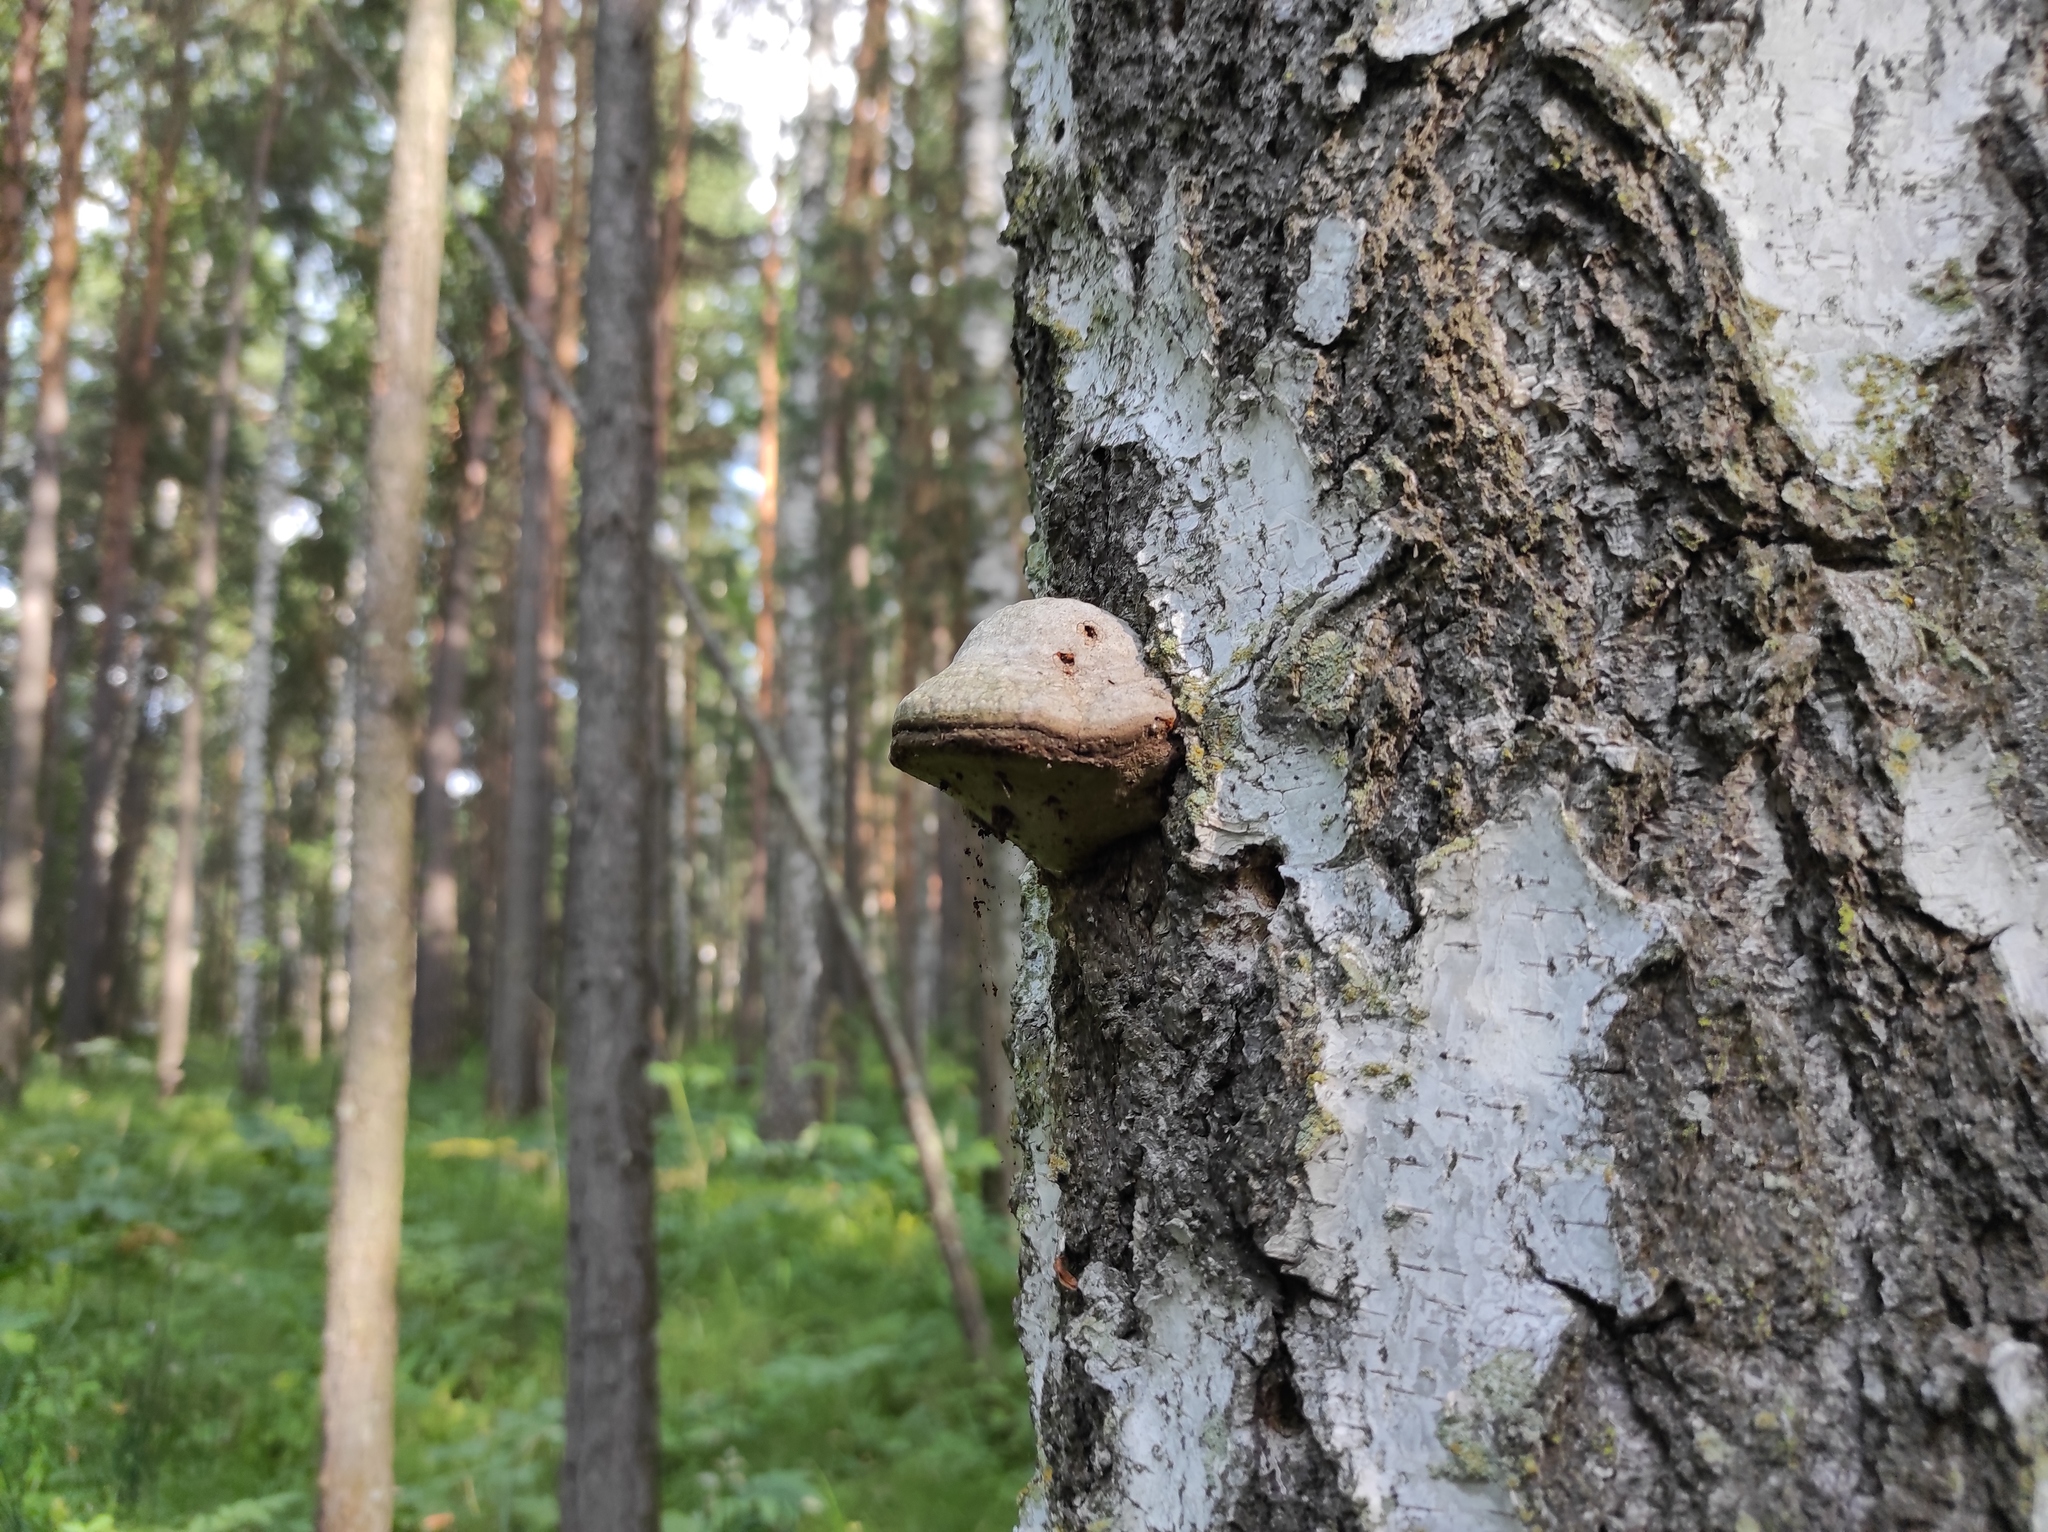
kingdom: Fungi
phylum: Basidiomycota
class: Agaricomycetes
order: Polyporales
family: Polyporaceae
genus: Fomes
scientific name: Fomes fomentarius
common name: Hoof fungus
